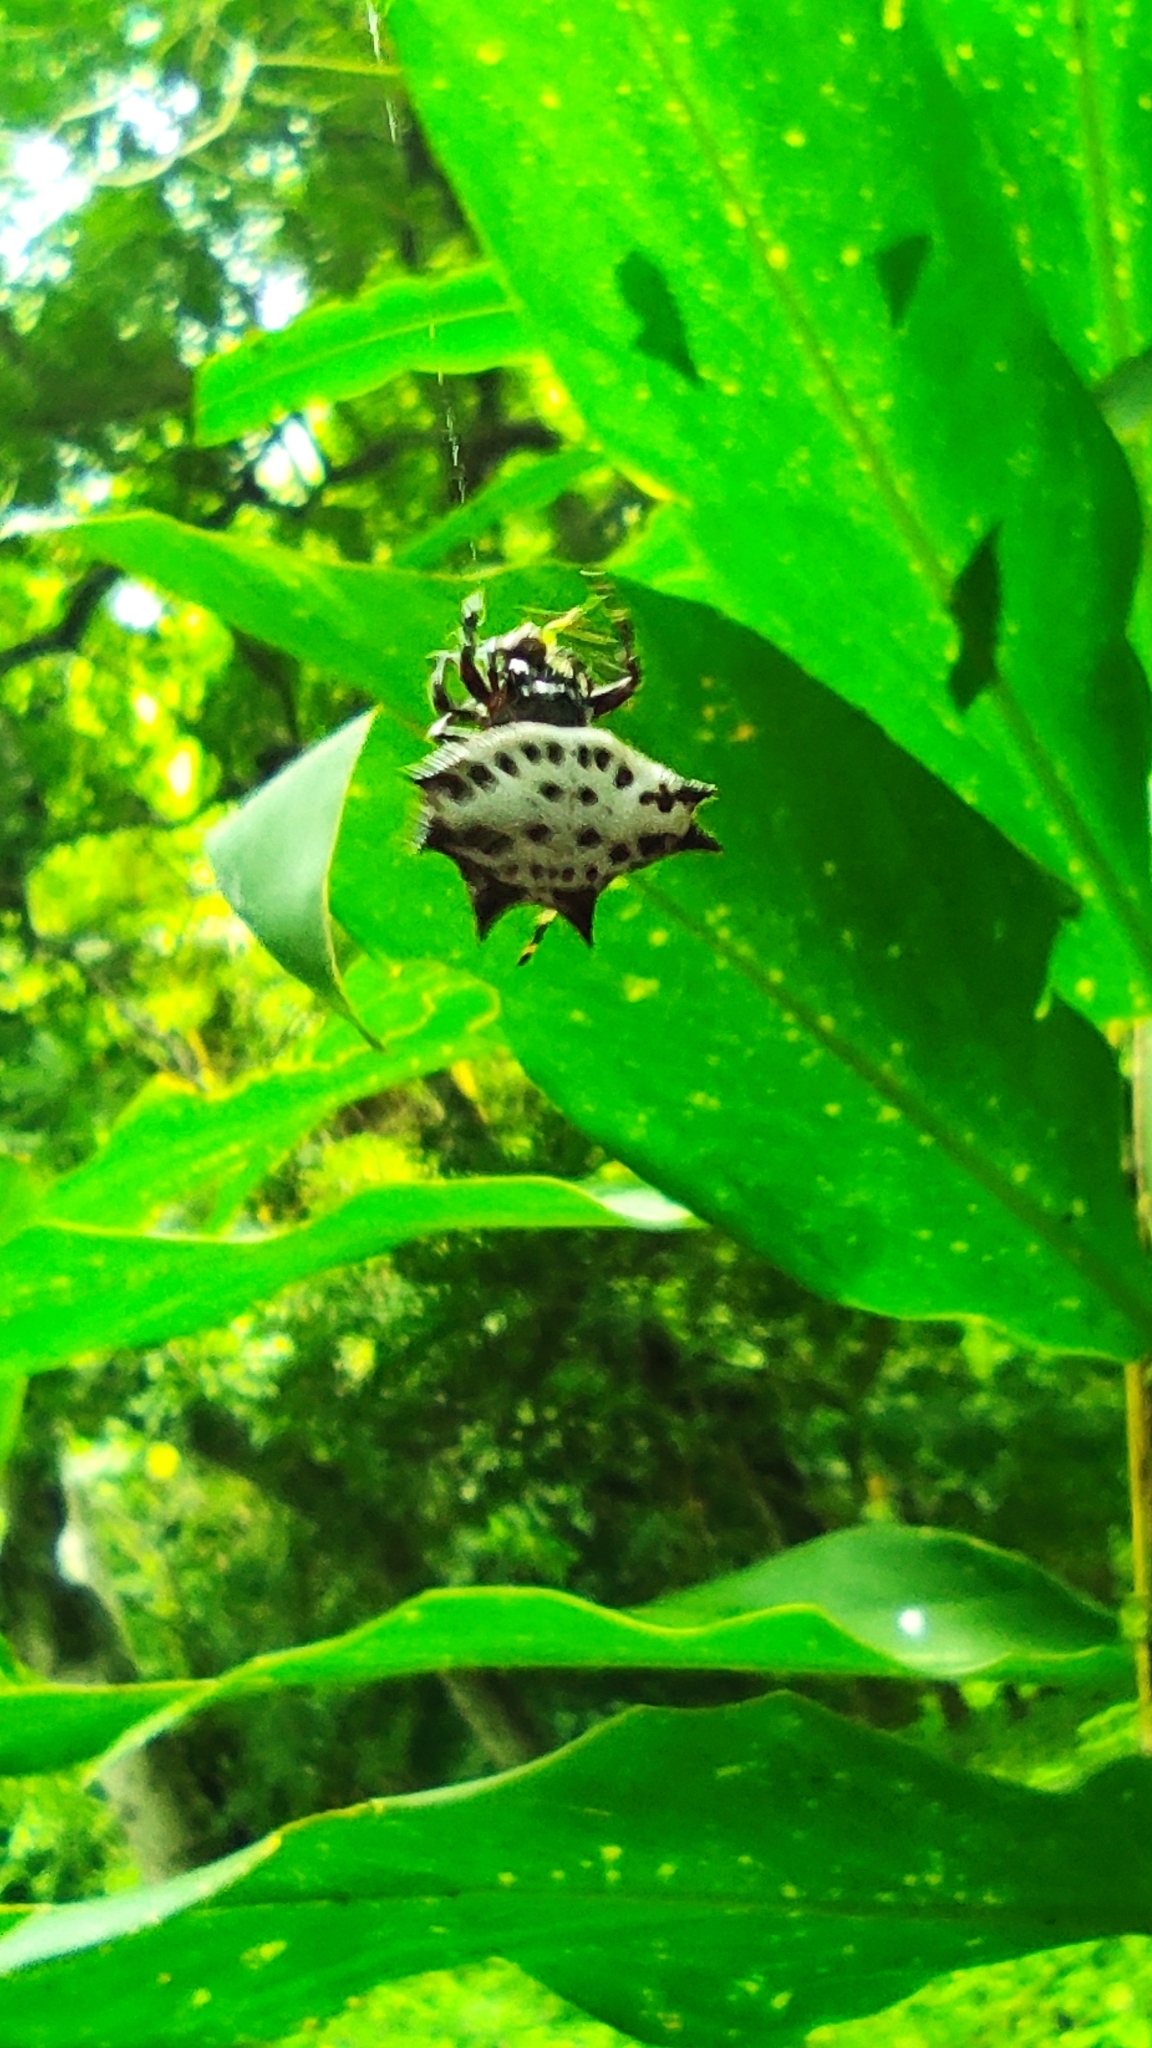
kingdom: Animalia
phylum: Arthropoda
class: Arachnida
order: Araneae
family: Araneidae
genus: Gasteracantha
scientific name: Gasteracantha cancriformis
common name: Orb weavers
